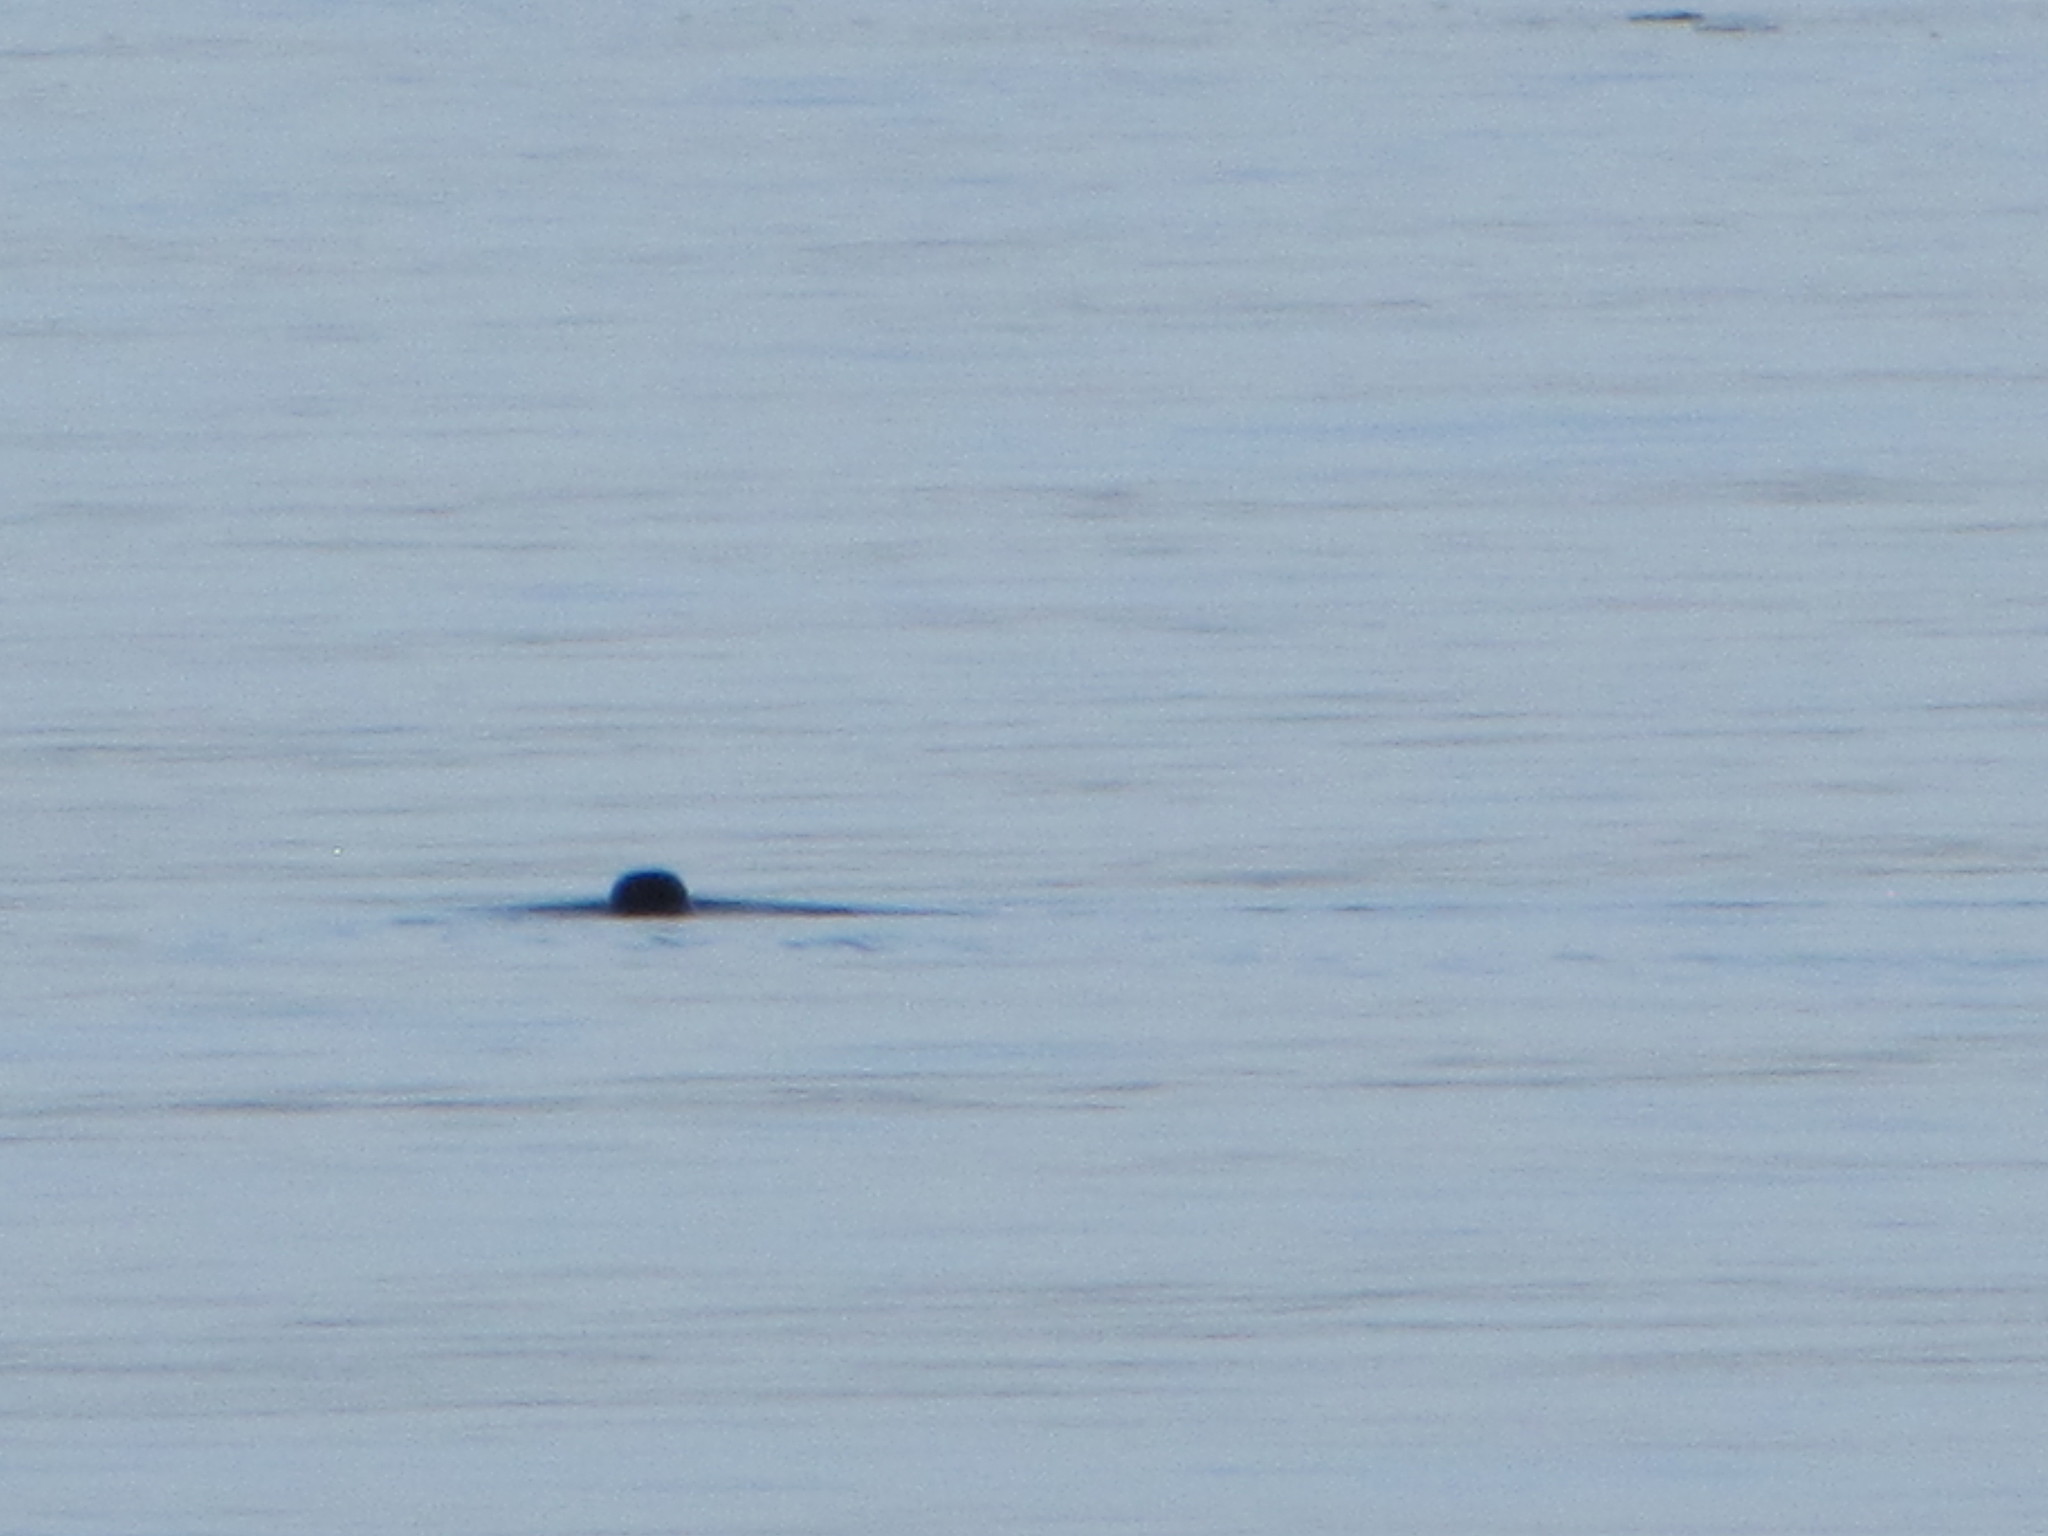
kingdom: Animalia
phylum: Chordata
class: Mammalia
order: Carnivora
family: Phocidae
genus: Phoca
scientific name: Phoca vitulina
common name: Harbor seal
